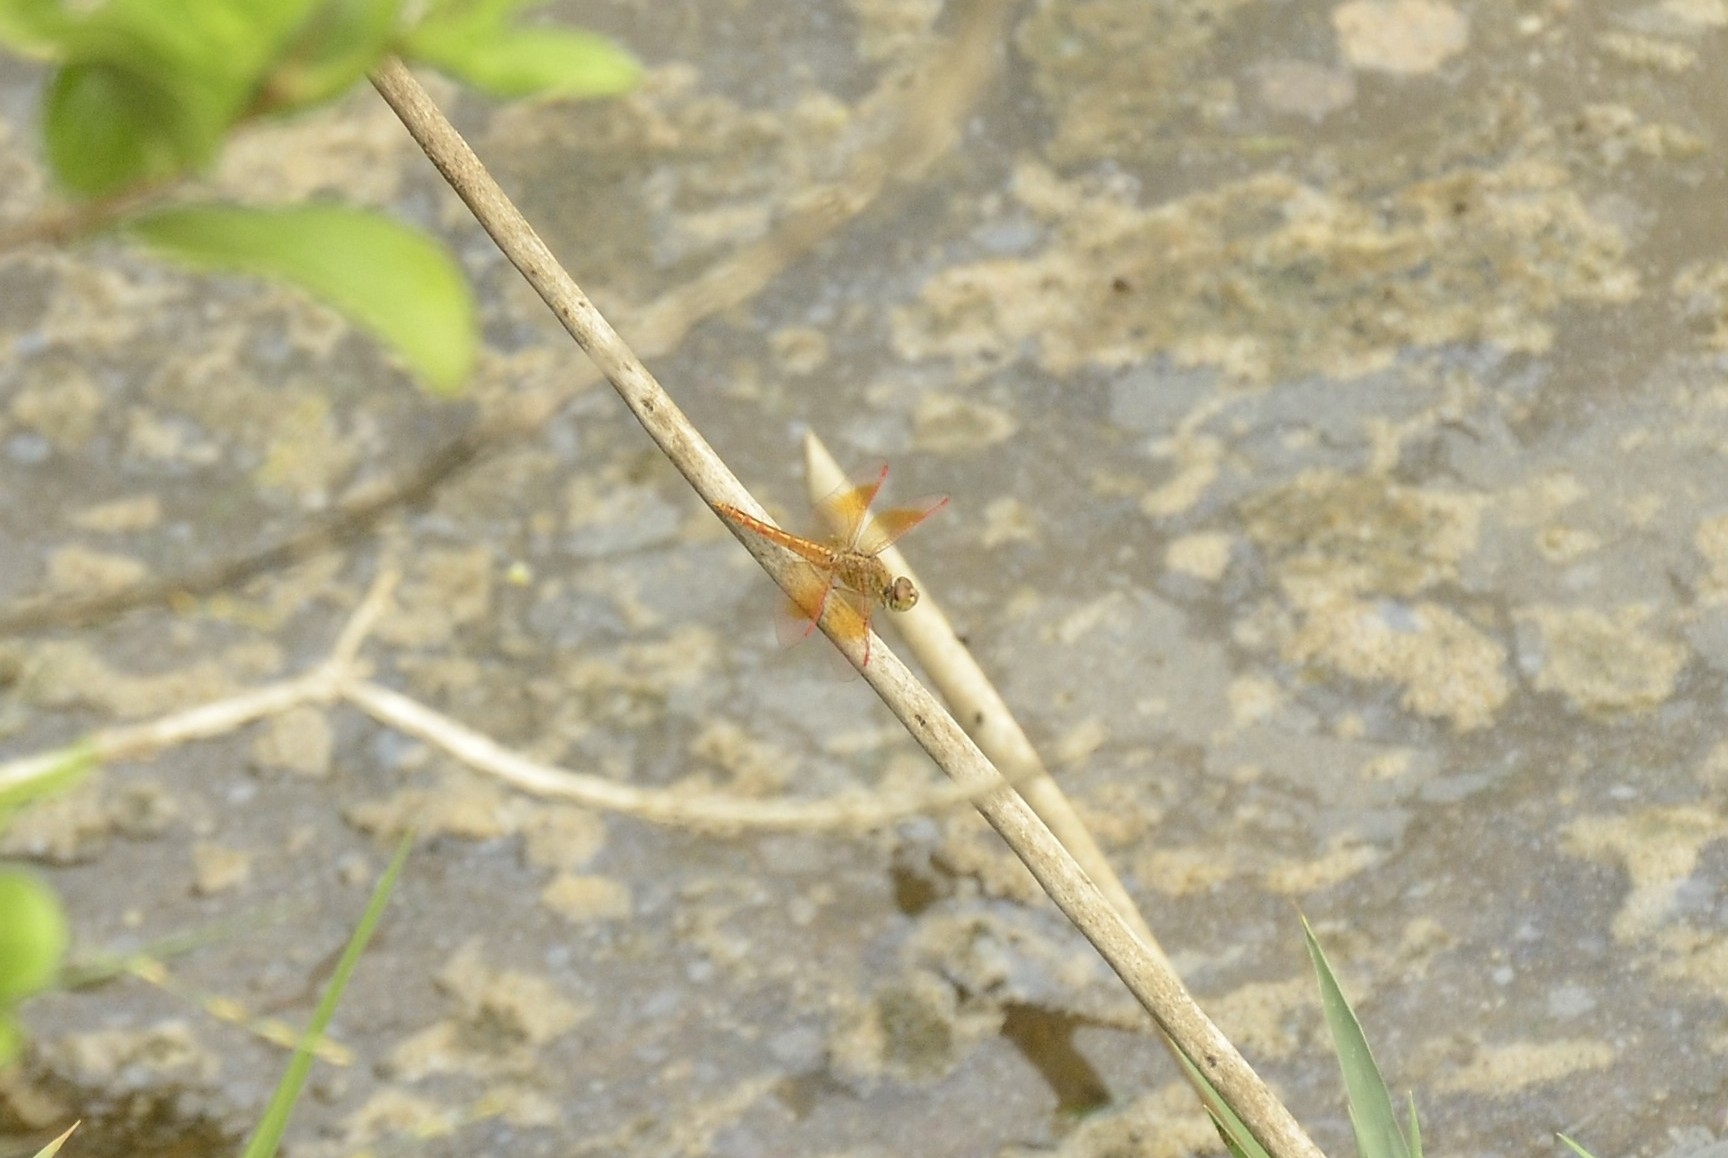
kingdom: Animalia
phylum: Arthropoda
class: Insecta
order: Odonata
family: Libellulidae
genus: Brachythemis
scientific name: Brachythemis contaminata
